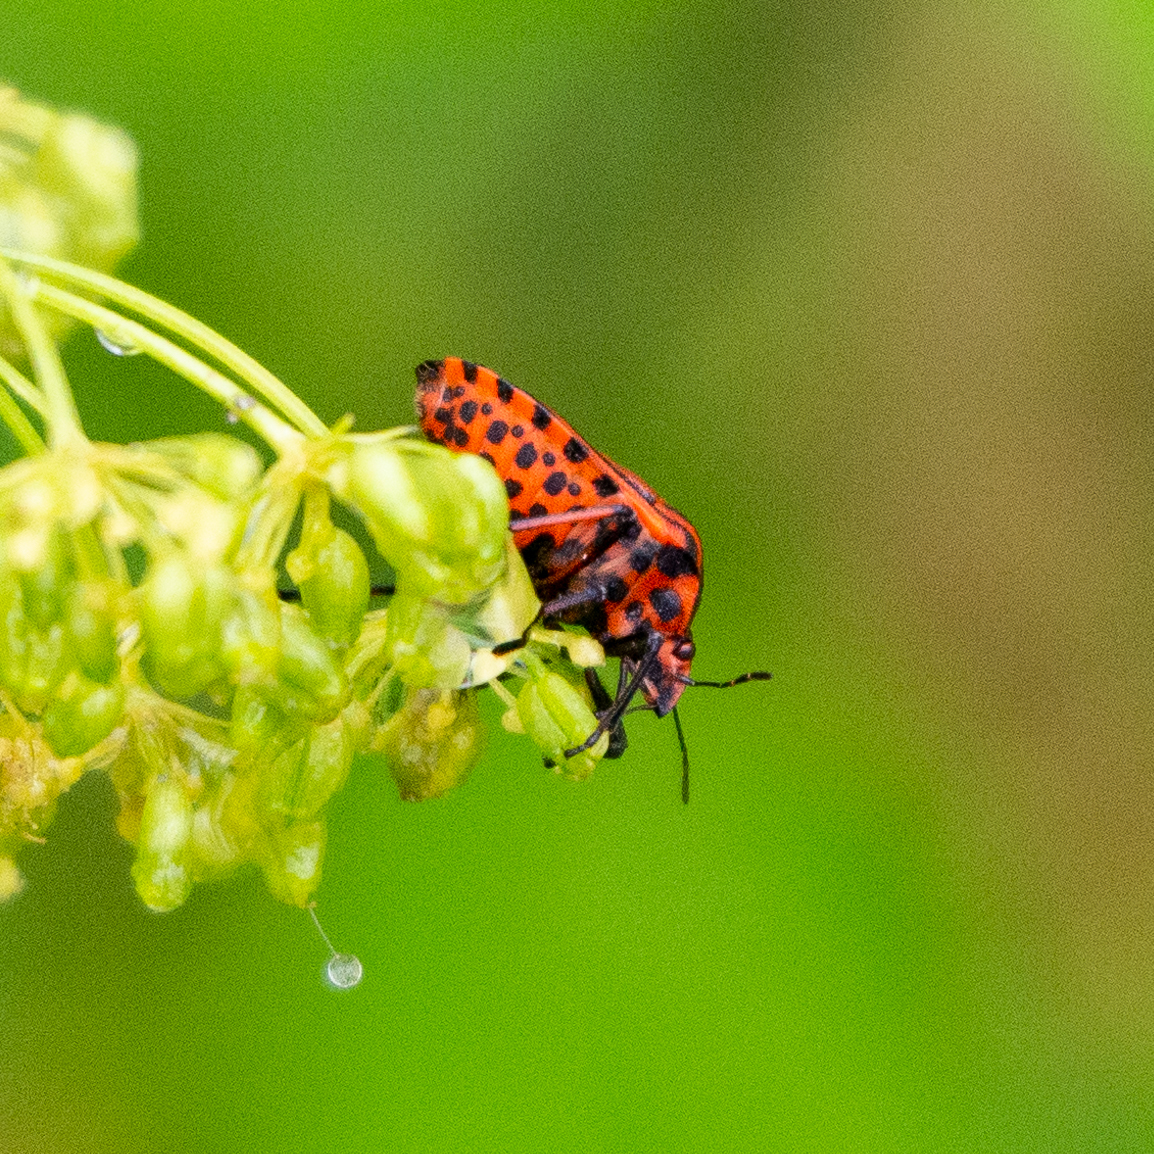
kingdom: Animalia
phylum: Arthropoda
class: Insecta
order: Hemiptera
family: Pentatomidae
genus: Graphosoma
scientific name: Graphosoma italicum
